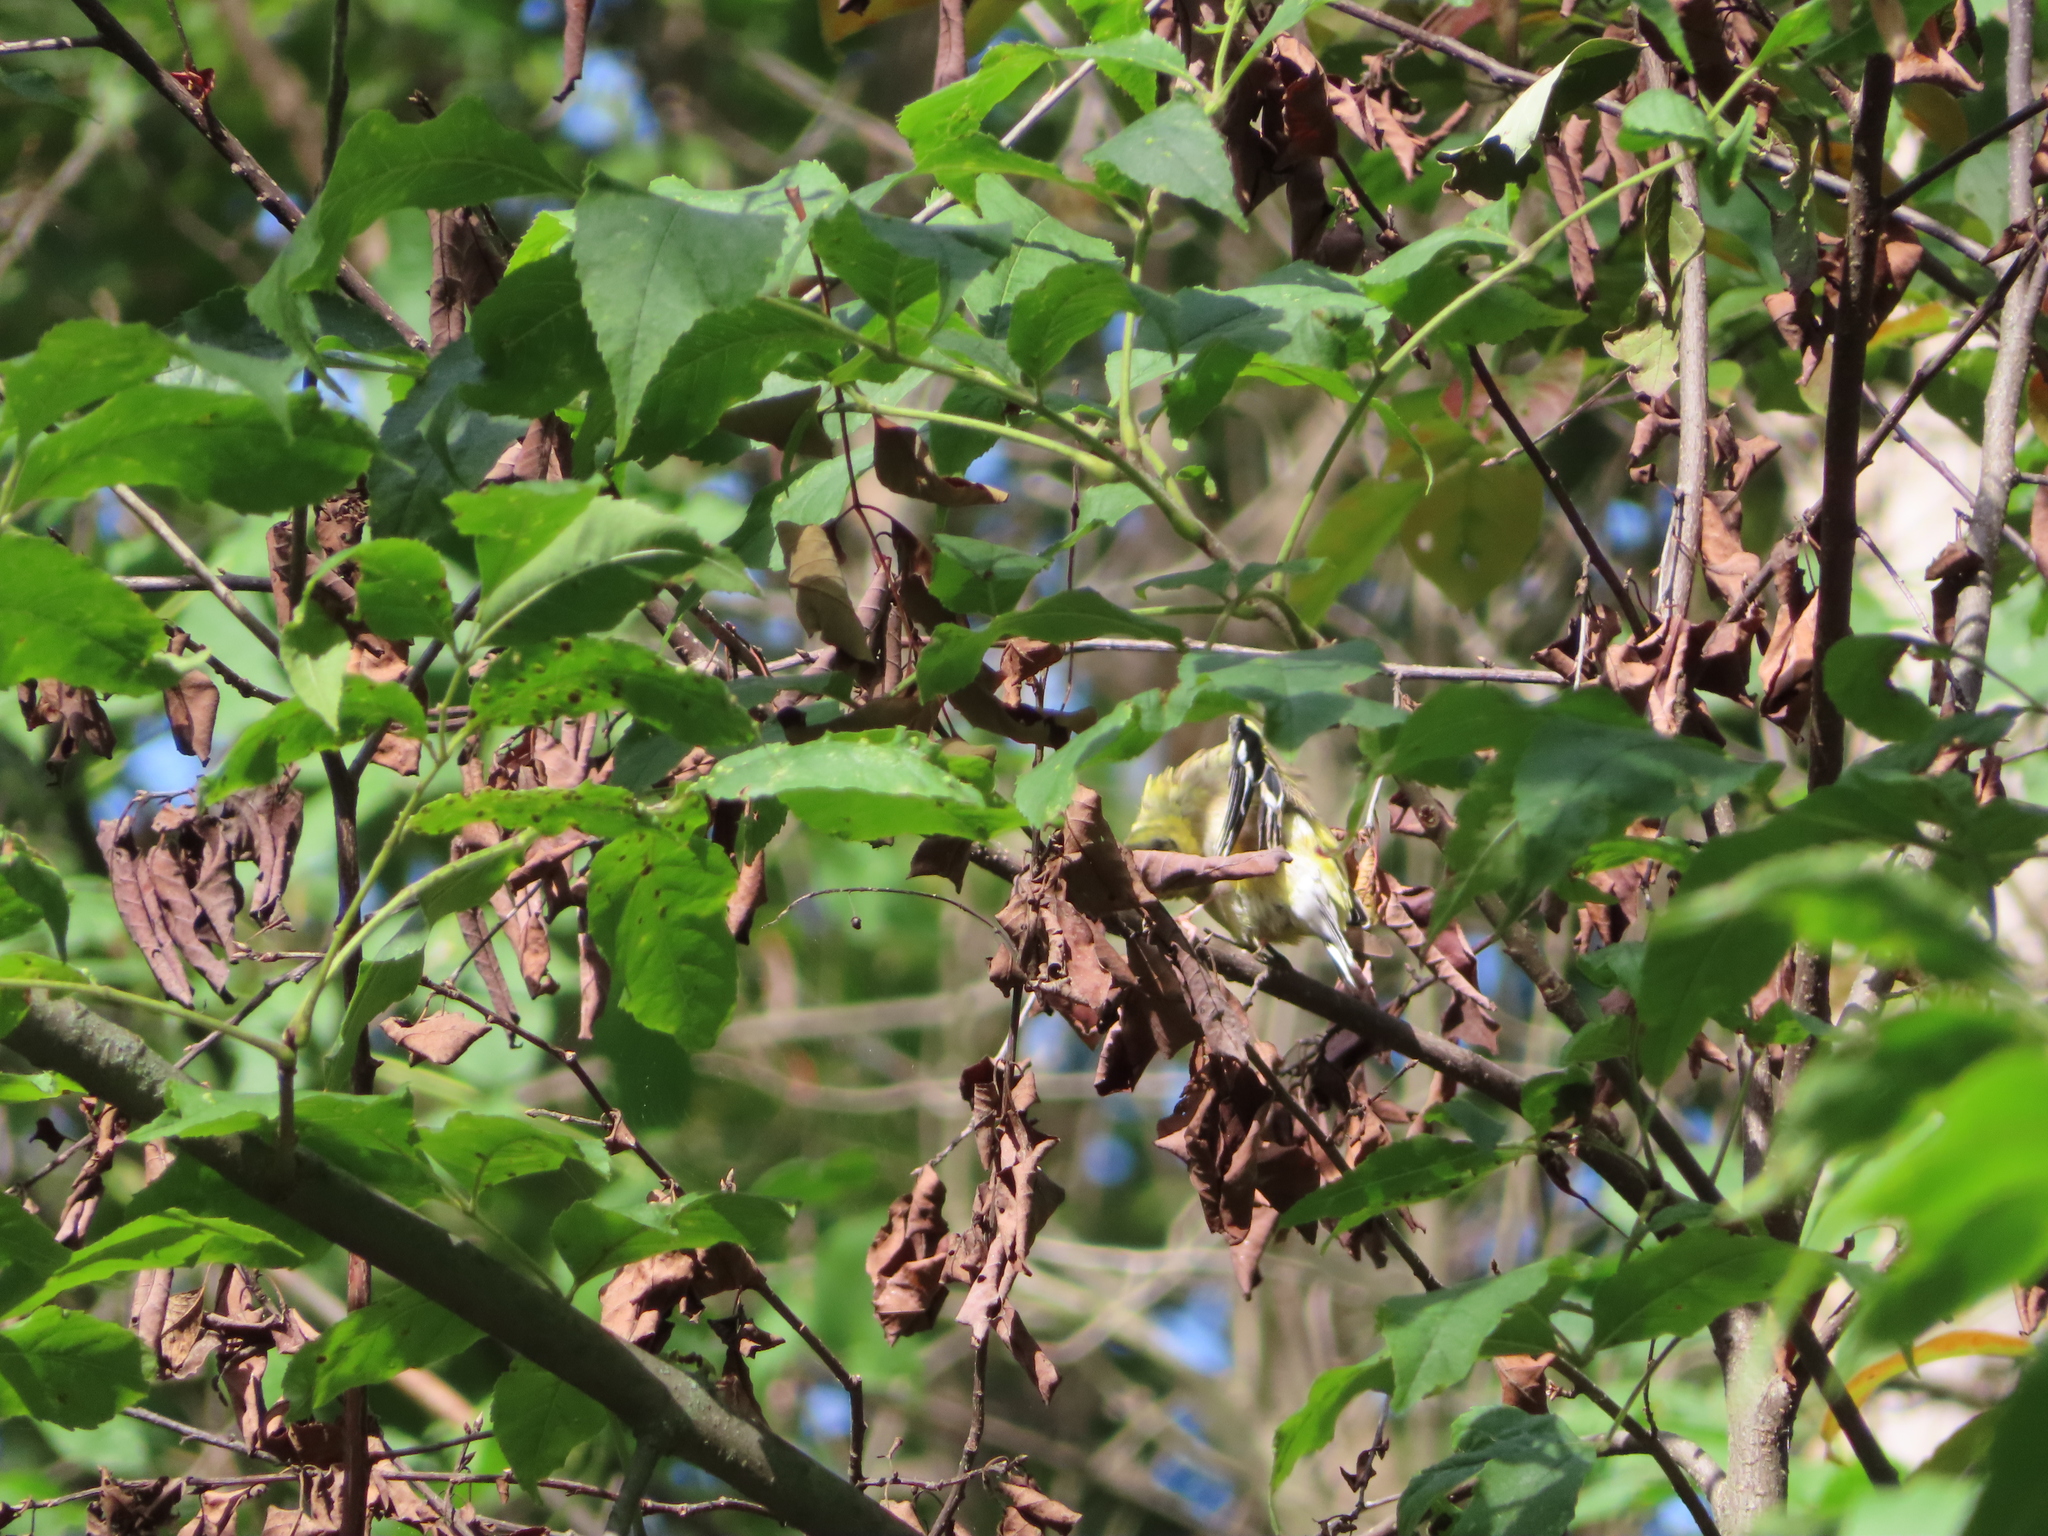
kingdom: Animalia
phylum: Chordata
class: Aves
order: Passeriformes
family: Fringillidae
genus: Spinus
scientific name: Spinus tristis
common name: American goldfinch
